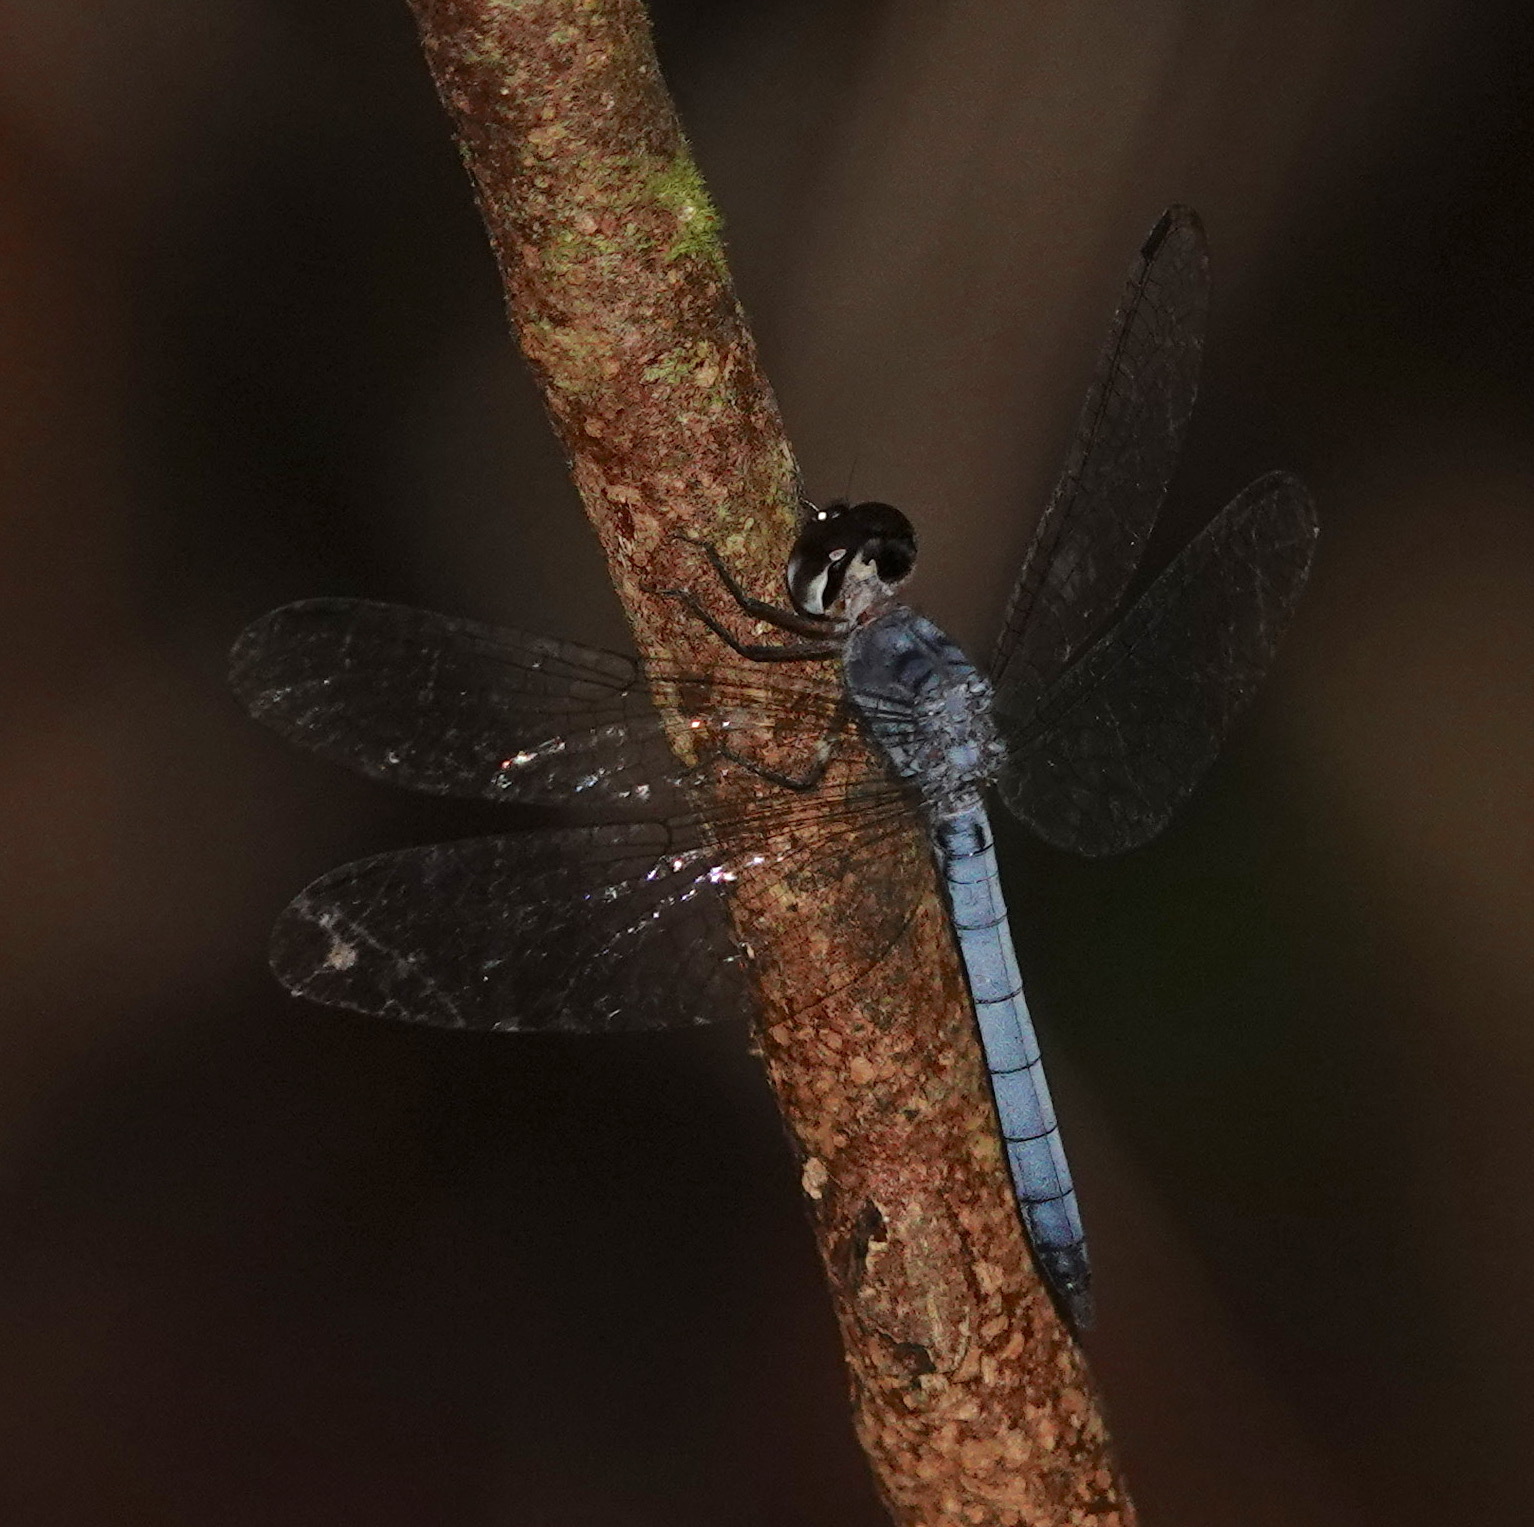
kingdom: Animalia
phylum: Arthropoda
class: Insecta
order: Odonata
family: Libellulidae
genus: Tyriobapta
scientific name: Tyriobapta kuekenthali
